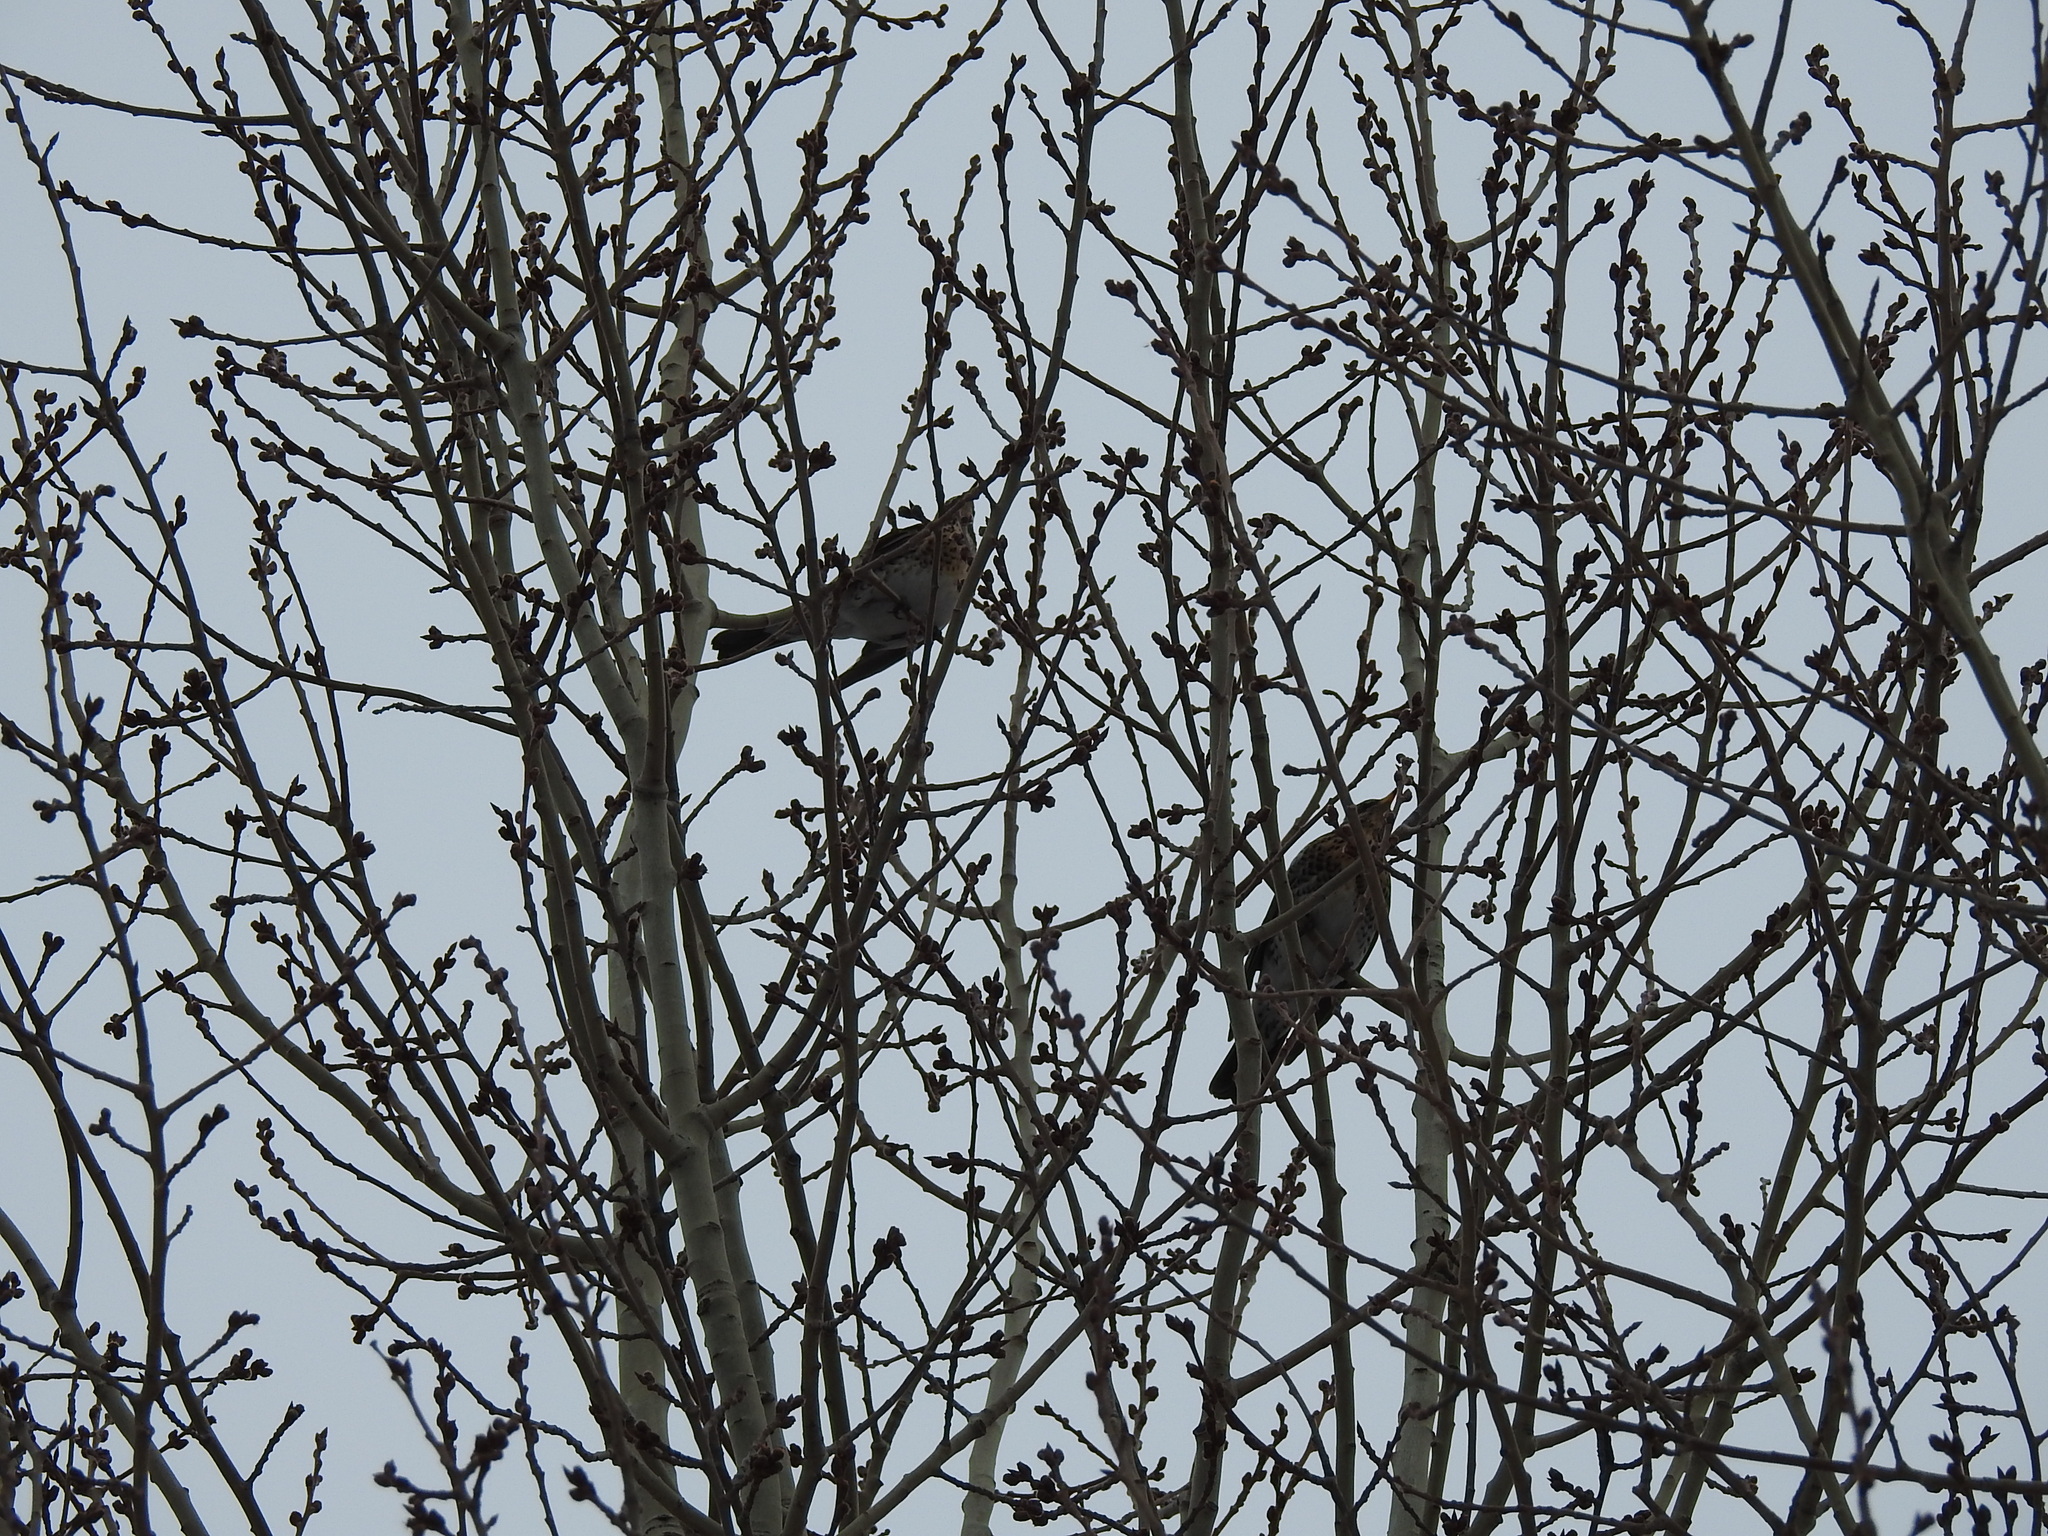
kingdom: Animalia
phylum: Chordata
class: Aves
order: Passeriformes
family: Turdidae
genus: Turdus
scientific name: Turdus pilaris
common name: Fieldfare
